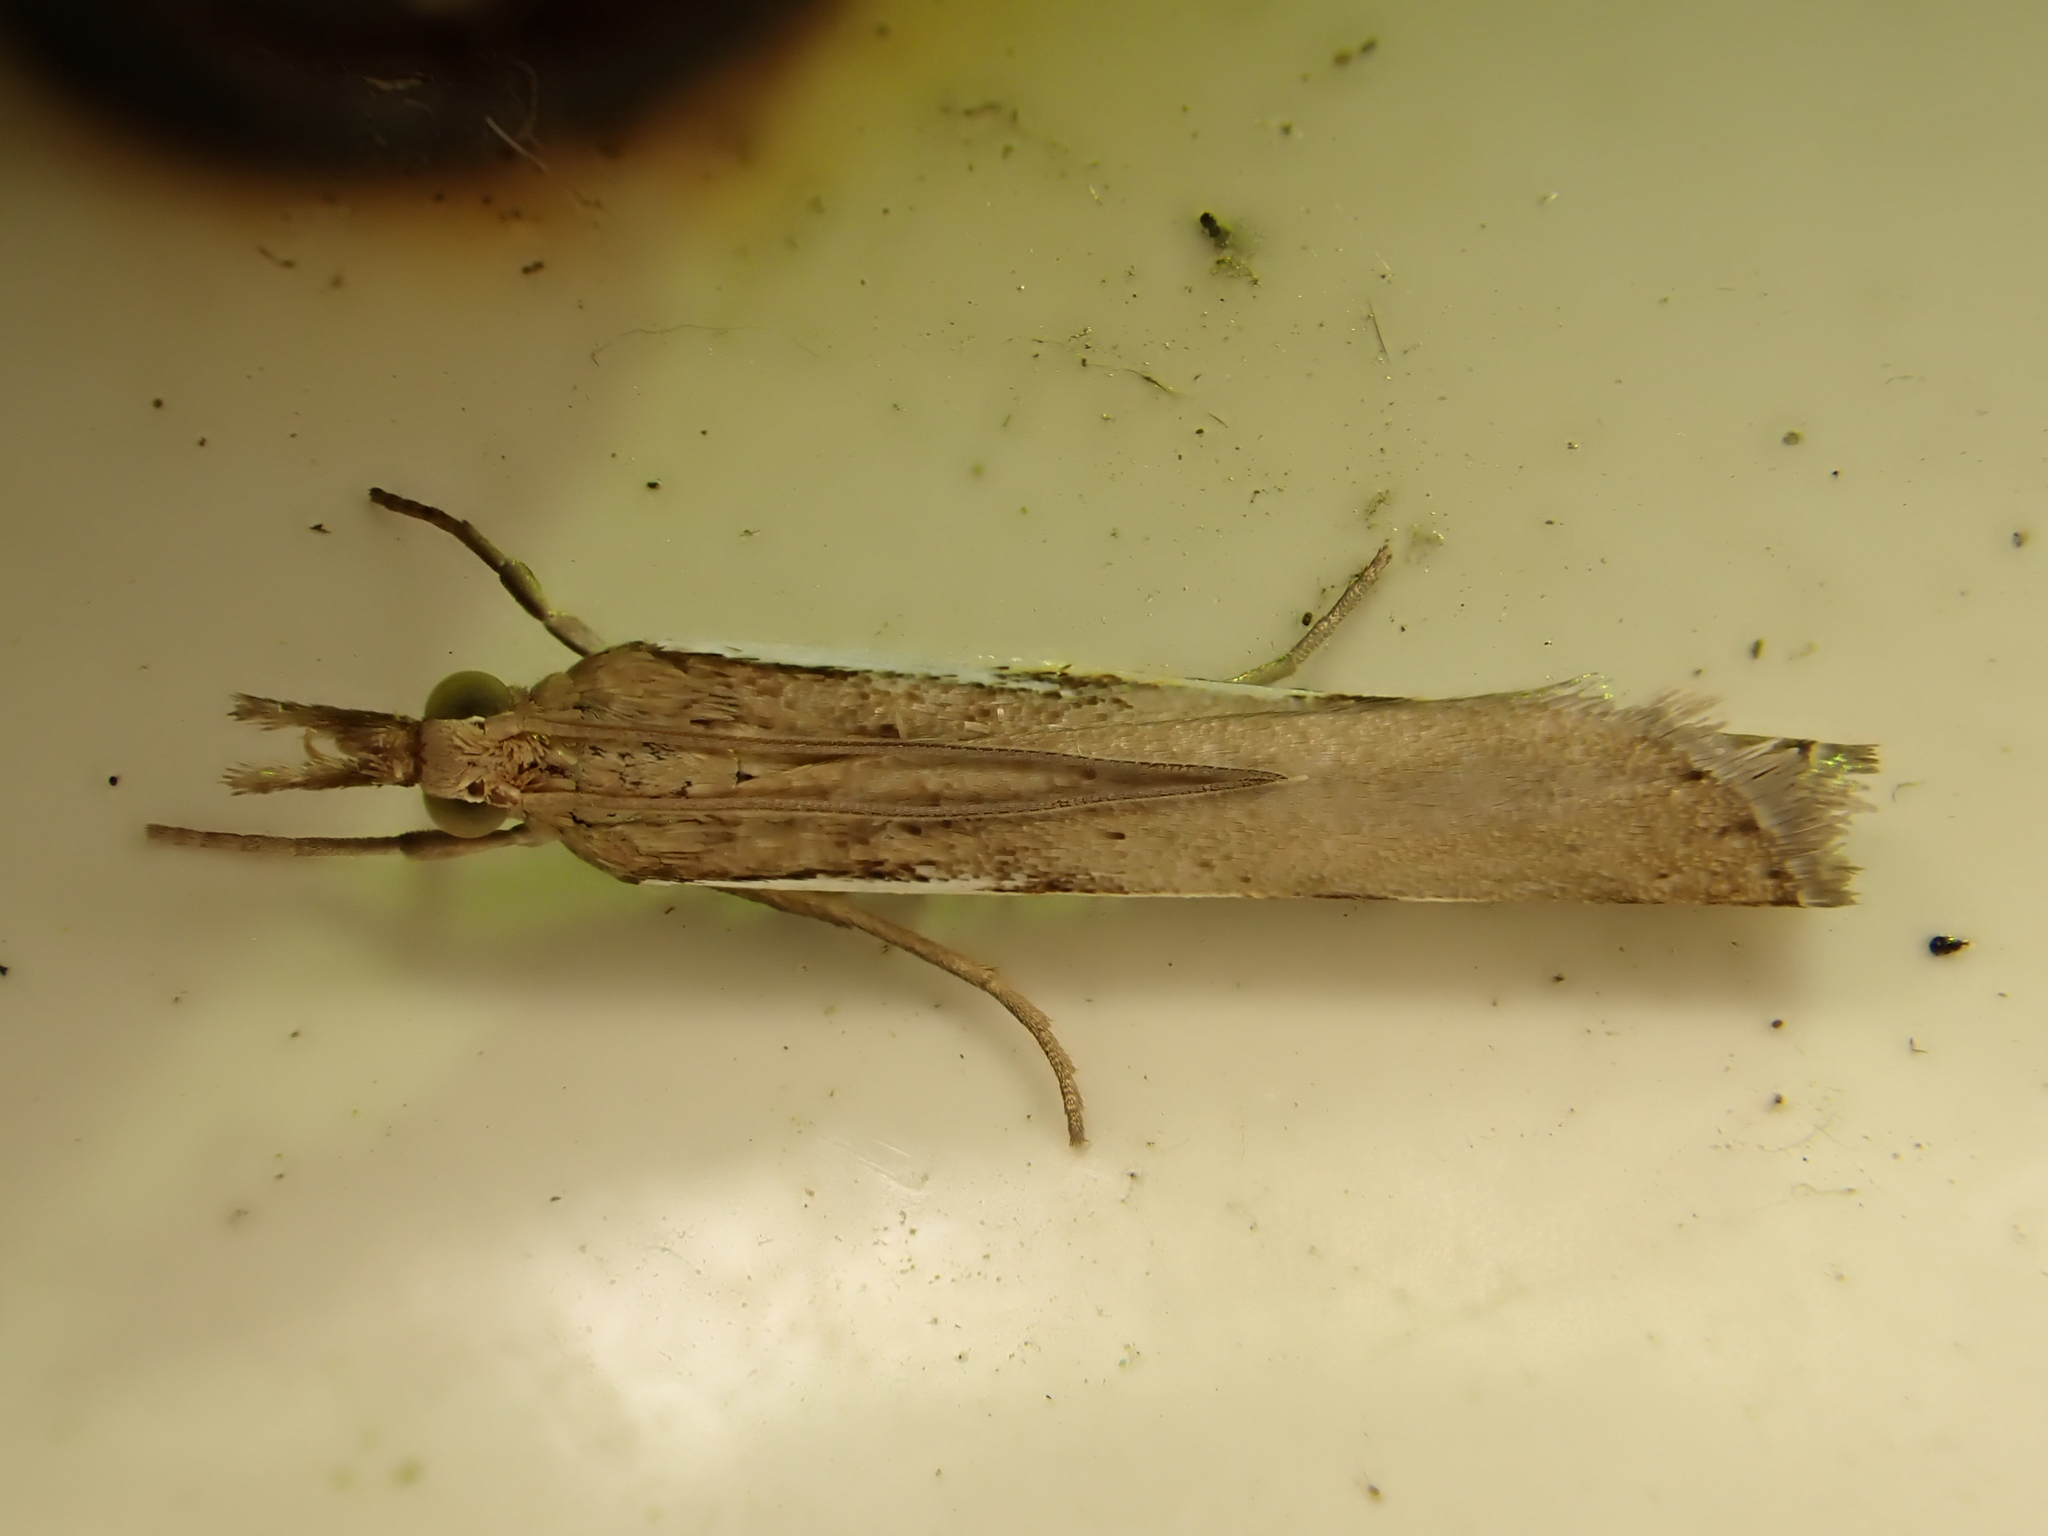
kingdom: Animalia
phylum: Arthropoda
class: Insecta
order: Lepidoptera
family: Crambidae
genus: Orocrambus
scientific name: Orocrambus flexuosellus
